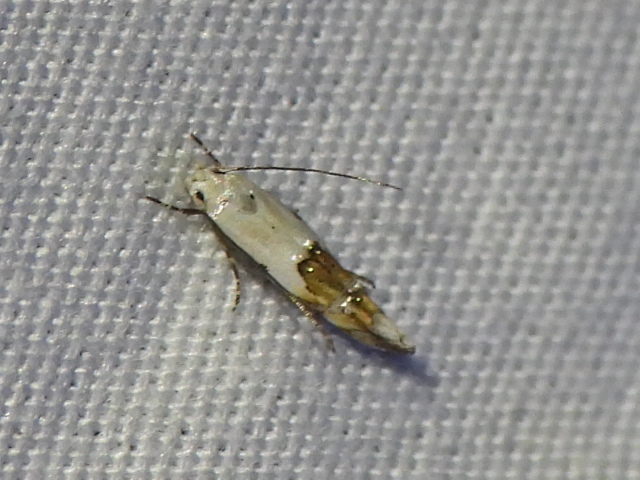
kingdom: Animalia
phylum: Arthropoda
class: Insecta
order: Lepidoptera
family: Momphidae
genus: Mompha
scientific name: Mompha passerella
